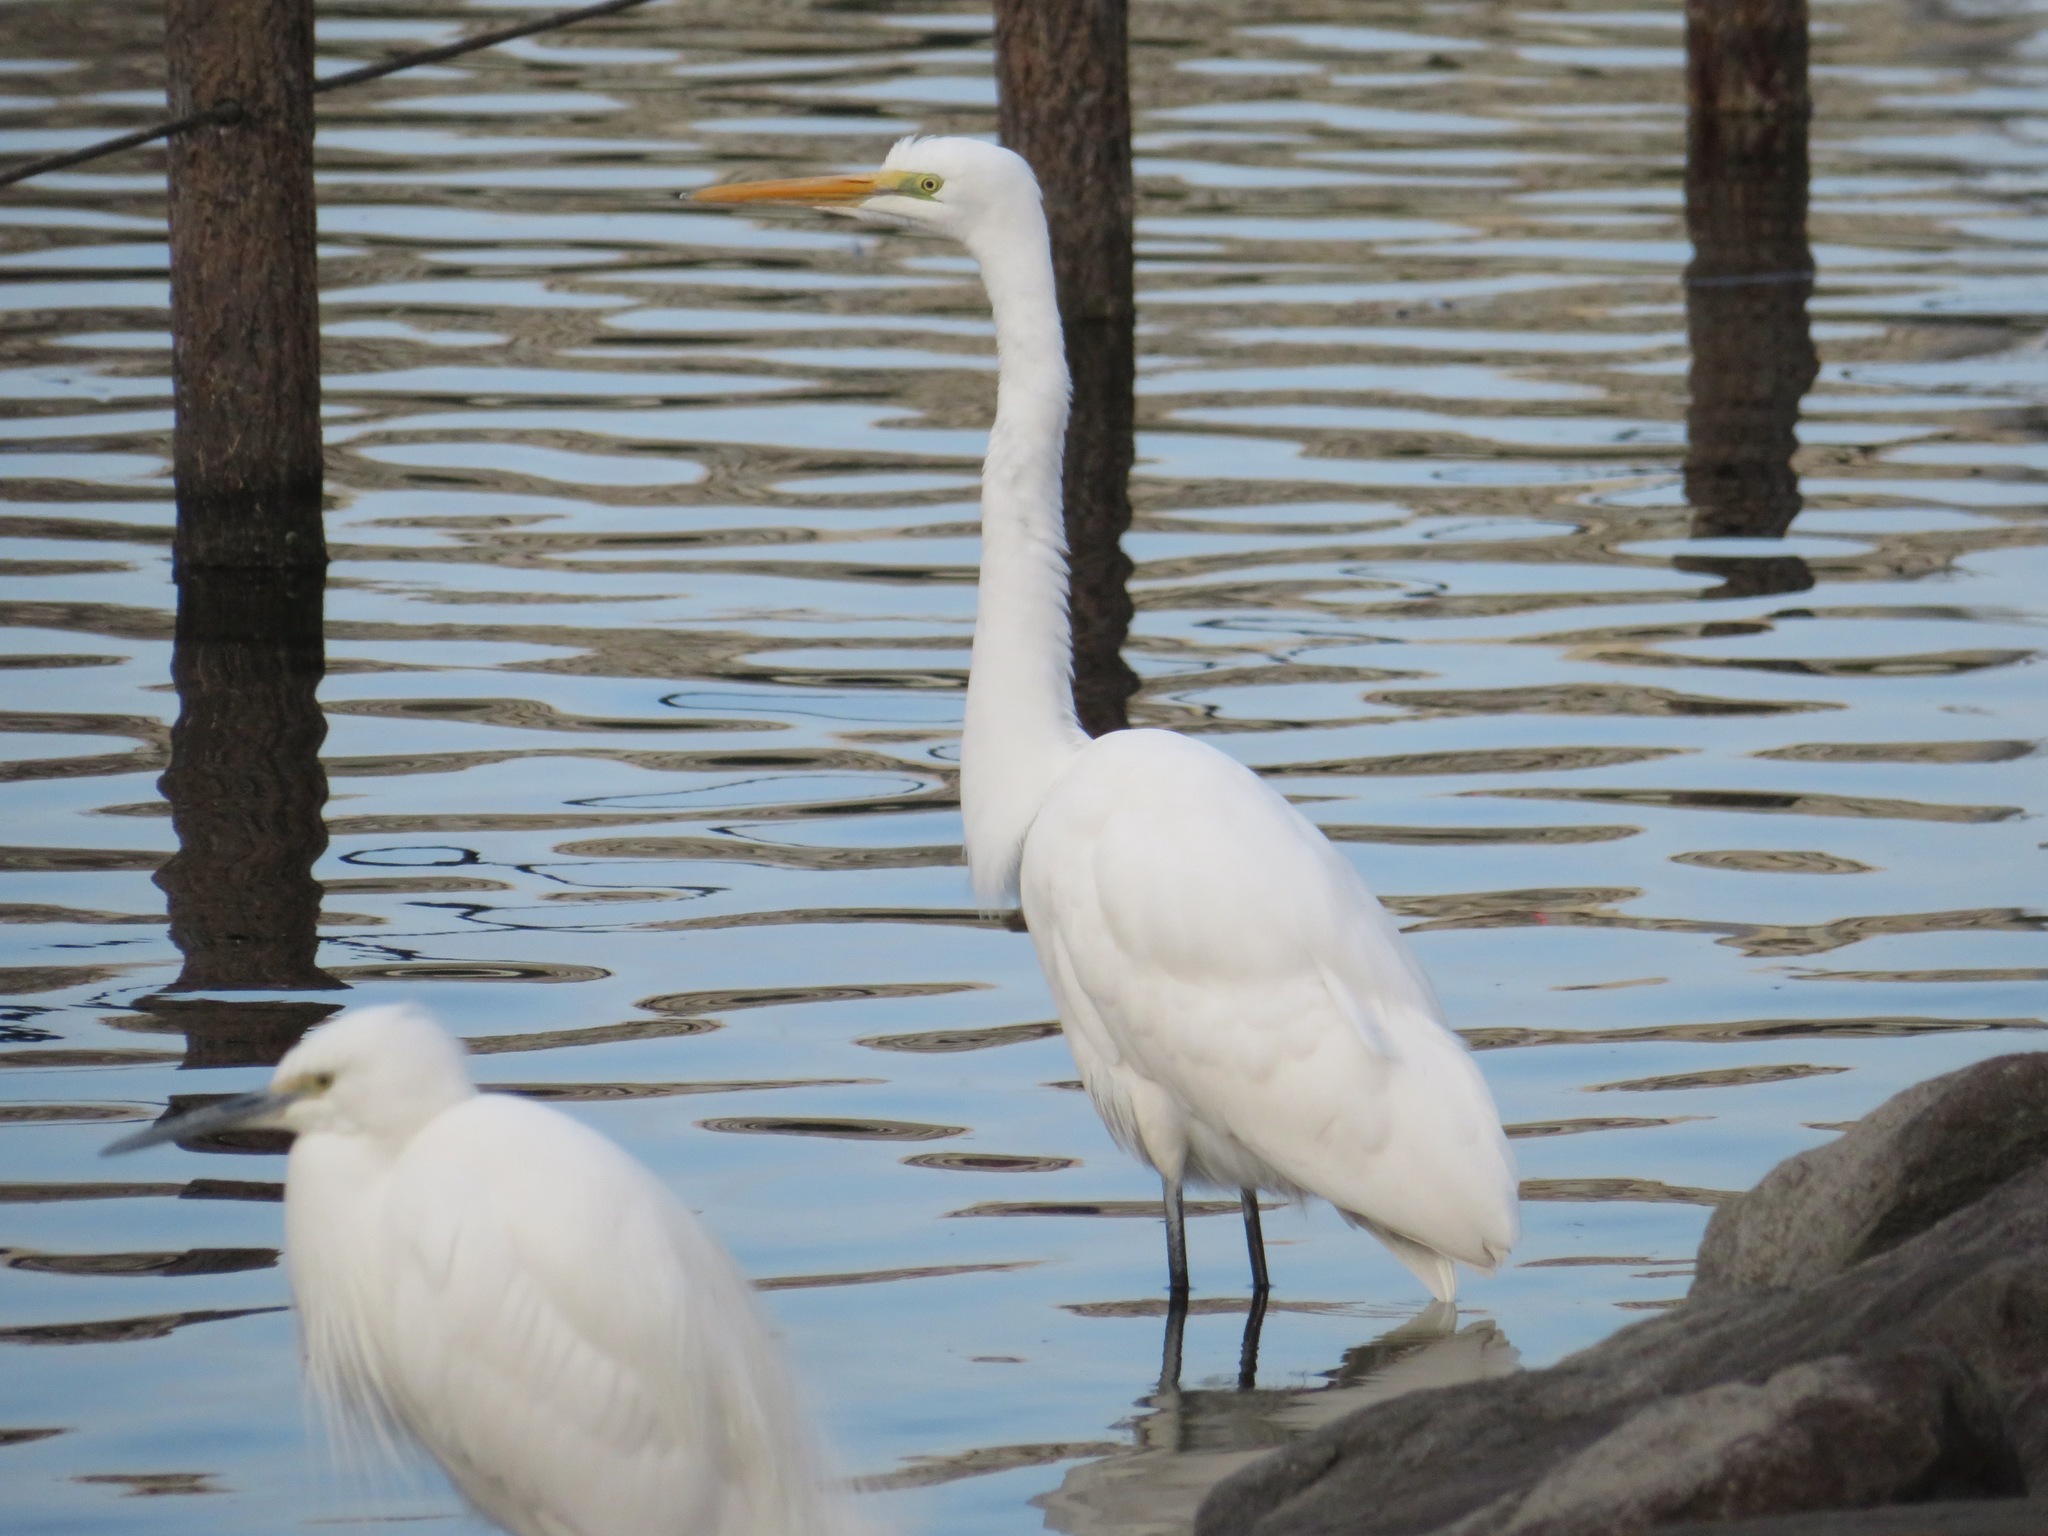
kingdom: Animalia
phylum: Chordata
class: Aves
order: Pelecaniformes
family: Ardeidae
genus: Ardea
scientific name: Ardea alba
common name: Great egret
